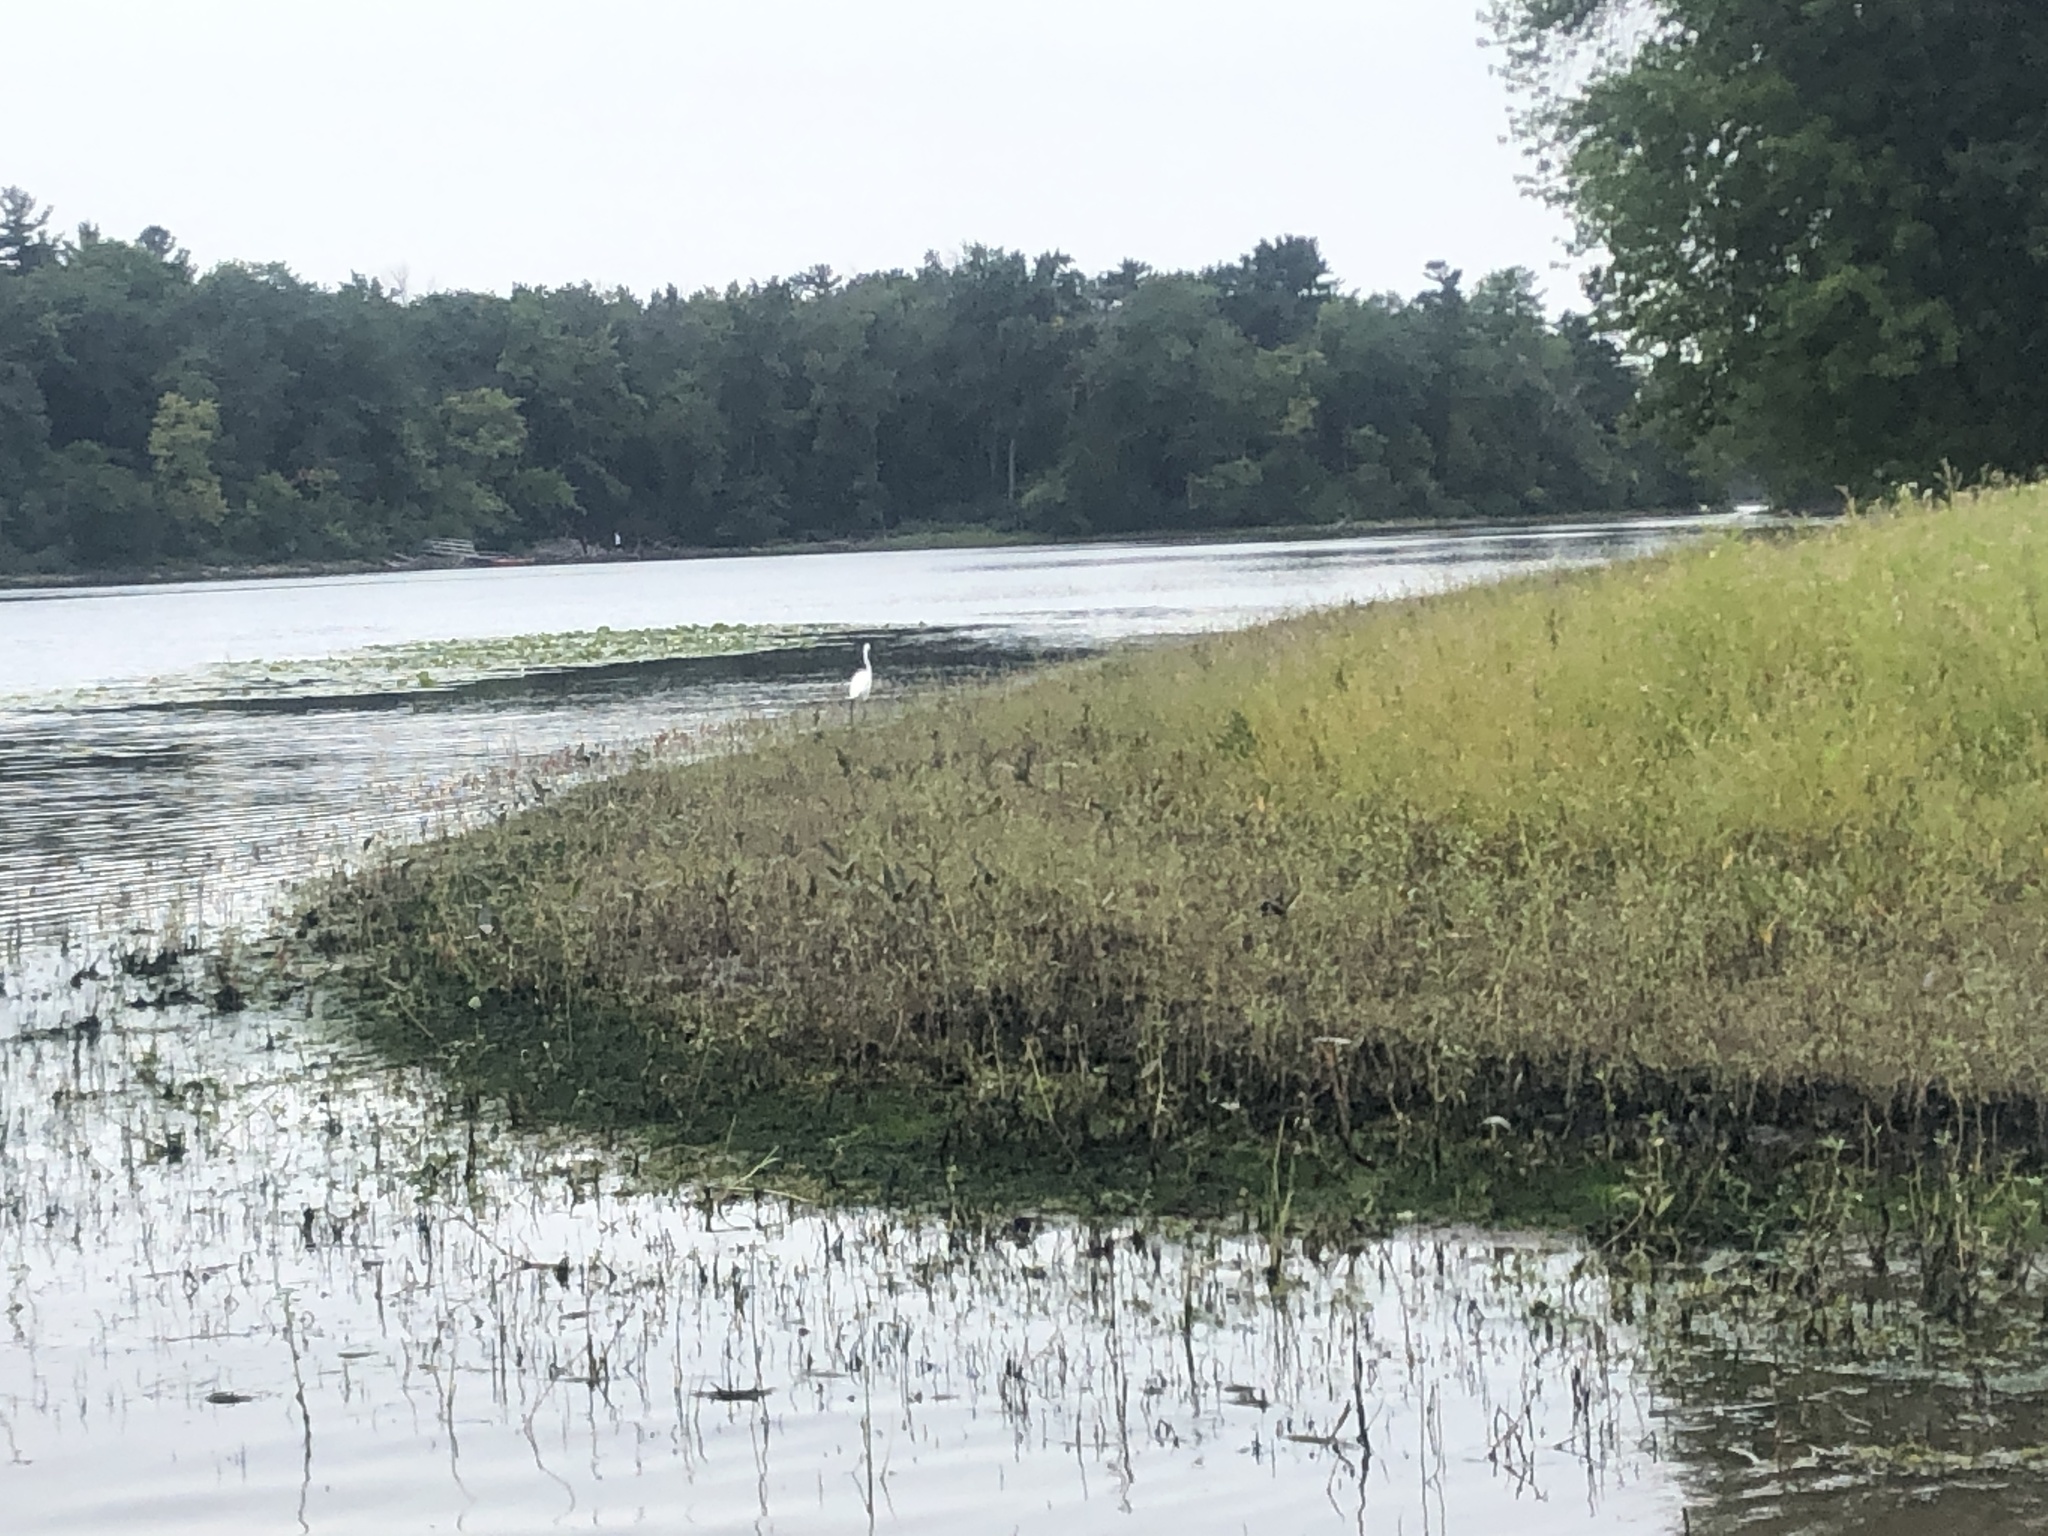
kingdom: Animalia
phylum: Chordata
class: Aves
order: Pelecaniformes
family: Ardeidae
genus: Ardea
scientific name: Ardea alba
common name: Great egret
